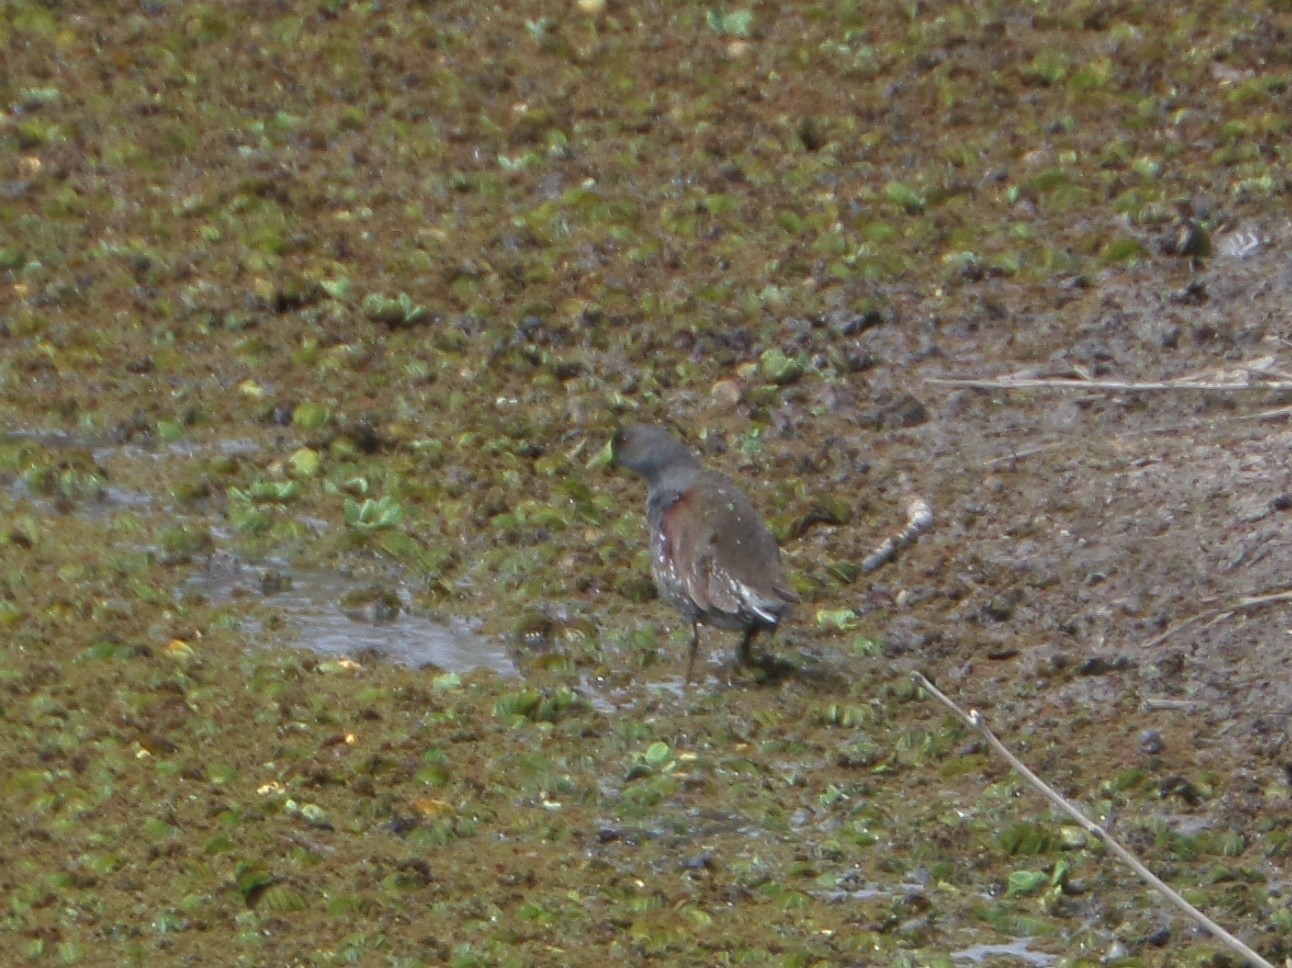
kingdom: Animalia
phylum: Chordata
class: Aves
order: Gruiformes
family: Rallidae
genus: Gallinula
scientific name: Gallinula melanops
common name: Spot-flanked gallinule
